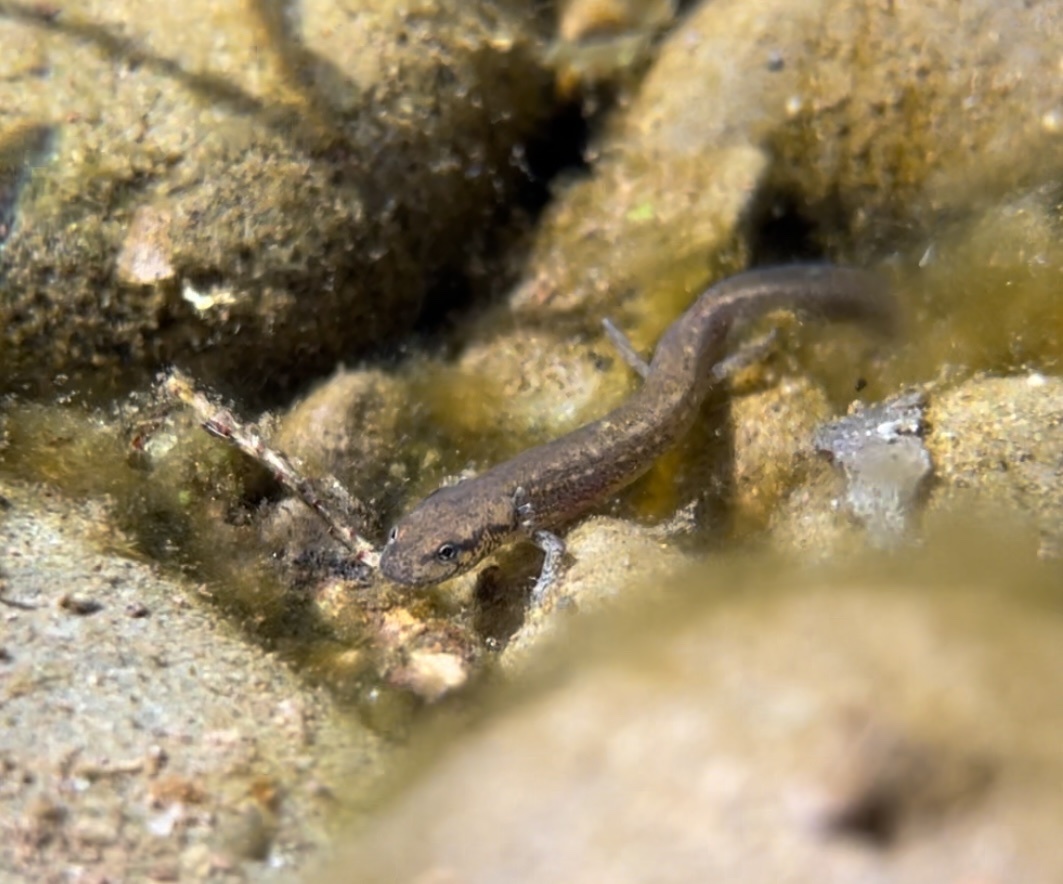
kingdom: Animalia
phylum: Chordata
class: Amphibia
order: Caudata
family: Plethodontidae
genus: Eurycea
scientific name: Eurycea bislineata
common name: Northern two-lined salamander
